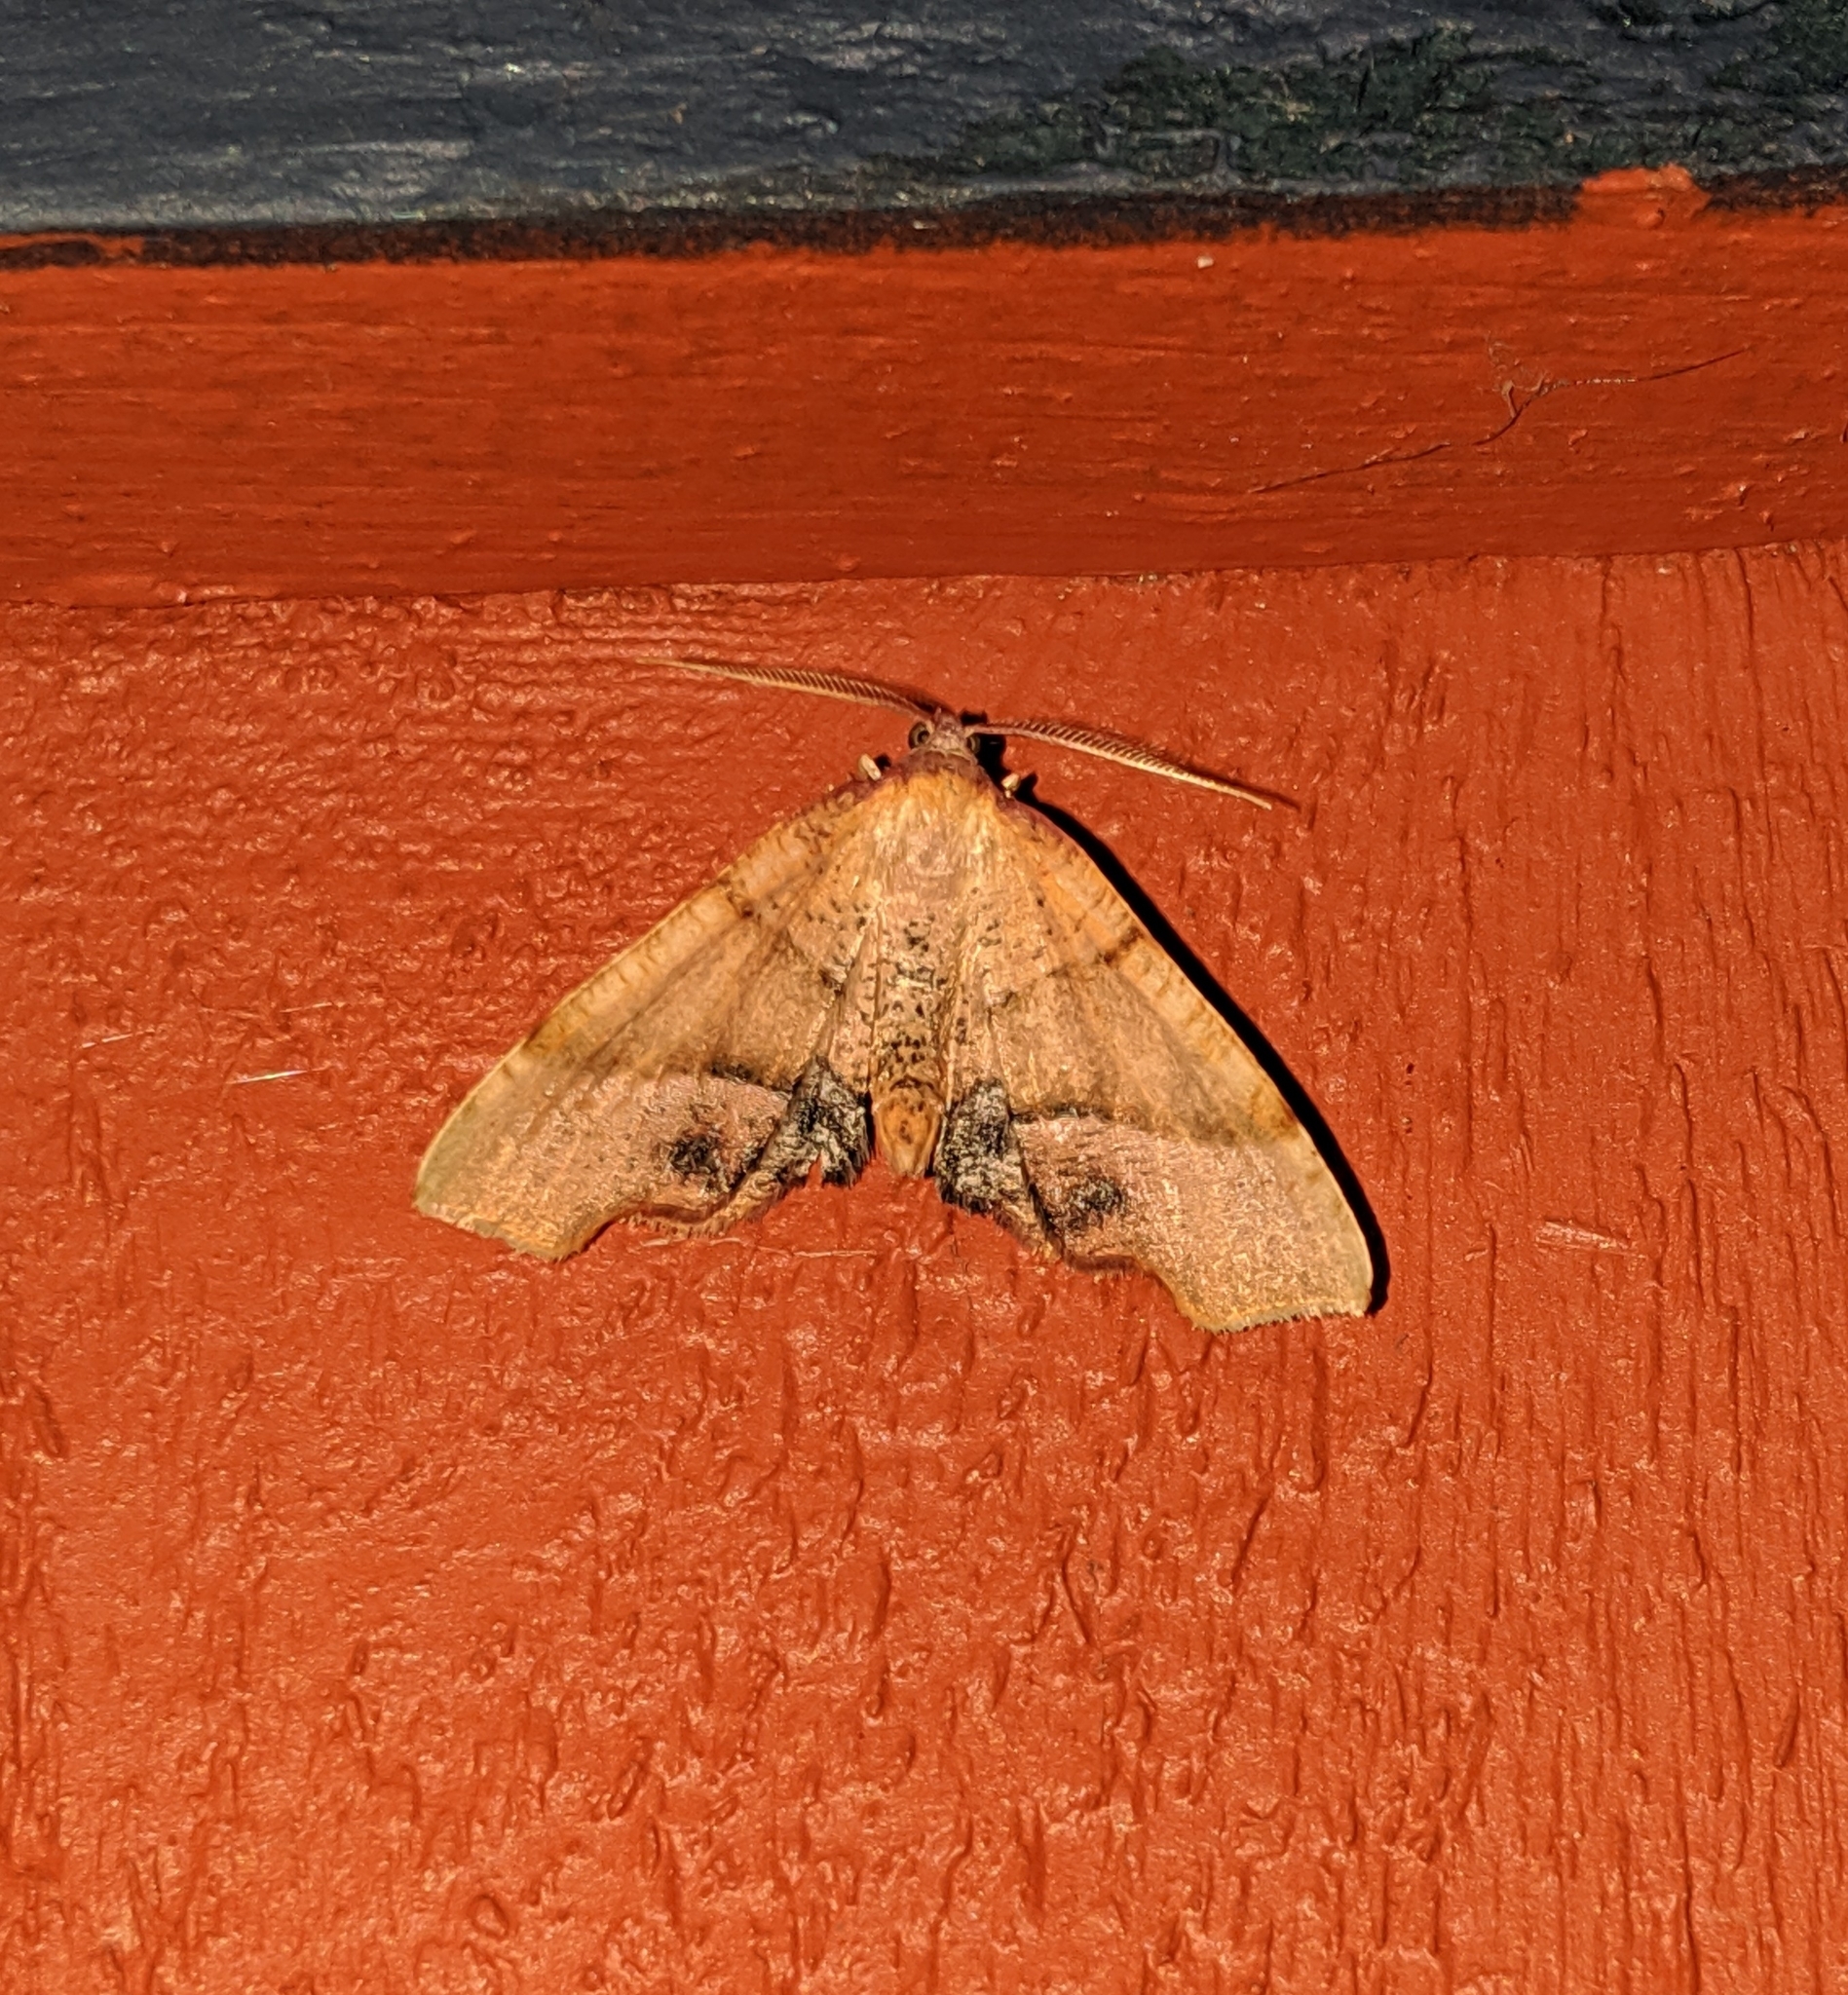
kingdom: Animalia
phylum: Arthropoda
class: Insecta
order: Lepidoptera
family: Geometridae
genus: Plagodis
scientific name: Plagodis phlogosaria
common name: Straight-lined plagodis
